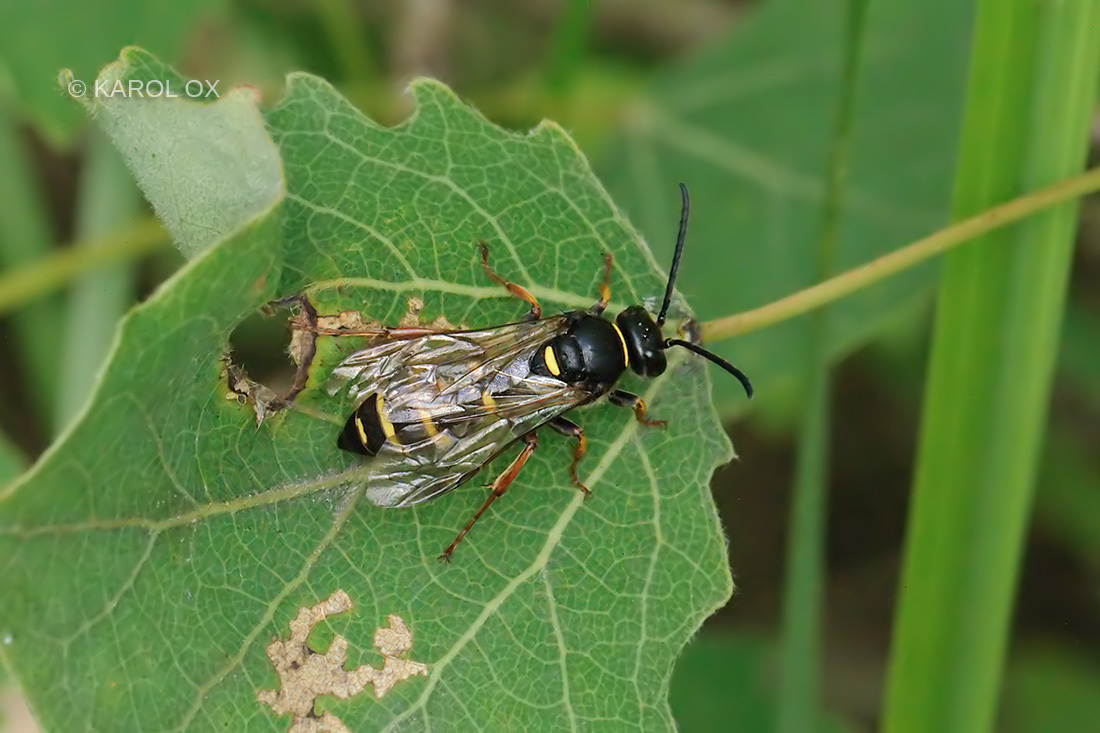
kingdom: Animalia
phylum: Arthropoda
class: Insecta
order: Hymenoptera
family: Crabronidae
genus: Argogorytes
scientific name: Argogorytes mystaceus
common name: Field digger wasp
